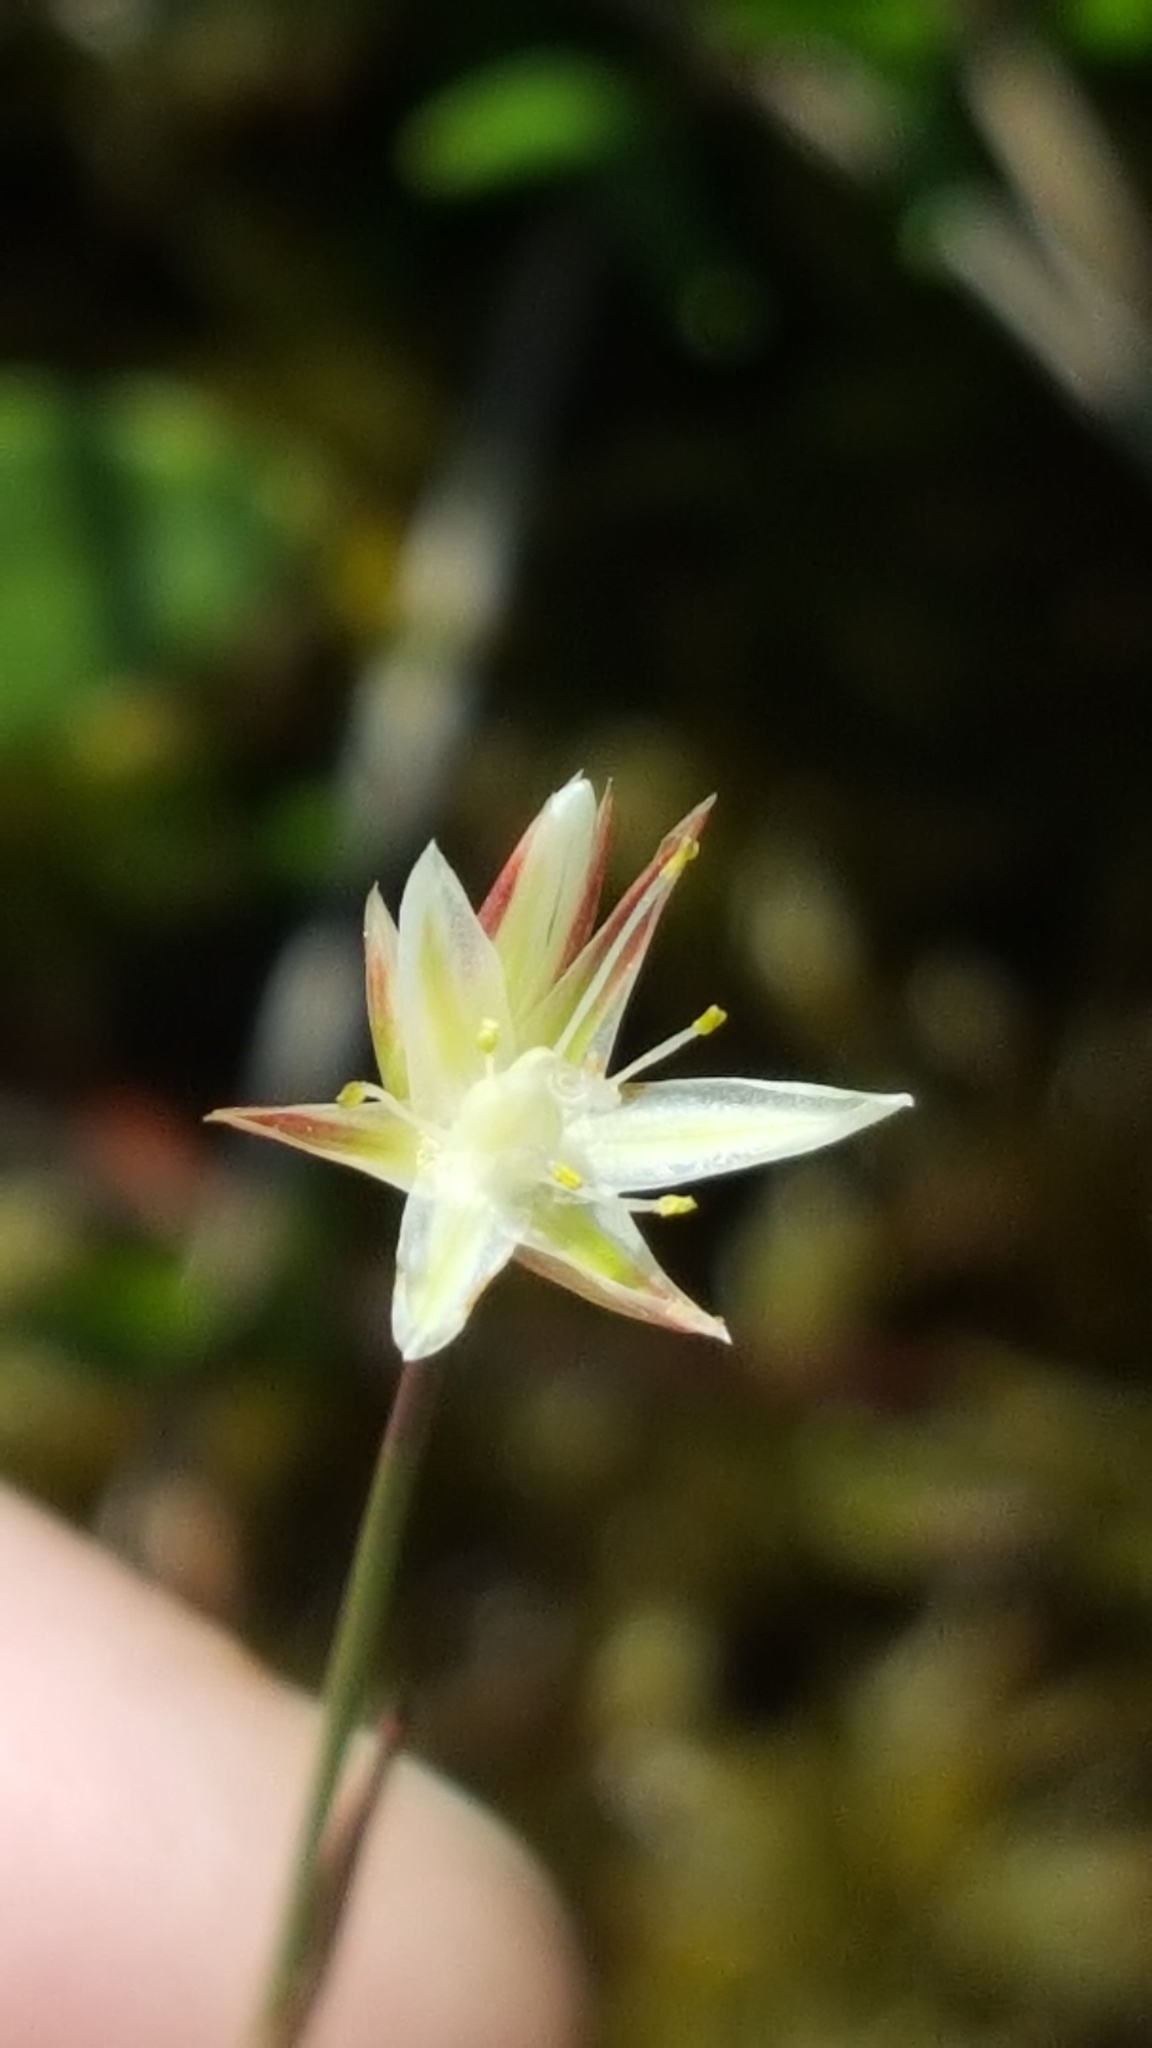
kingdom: Plantae
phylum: Tracheophyta
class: Liliopsida
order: Poales
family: Juncaceae
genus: Juncus
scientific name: Juncus stygius
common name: Bog rush
